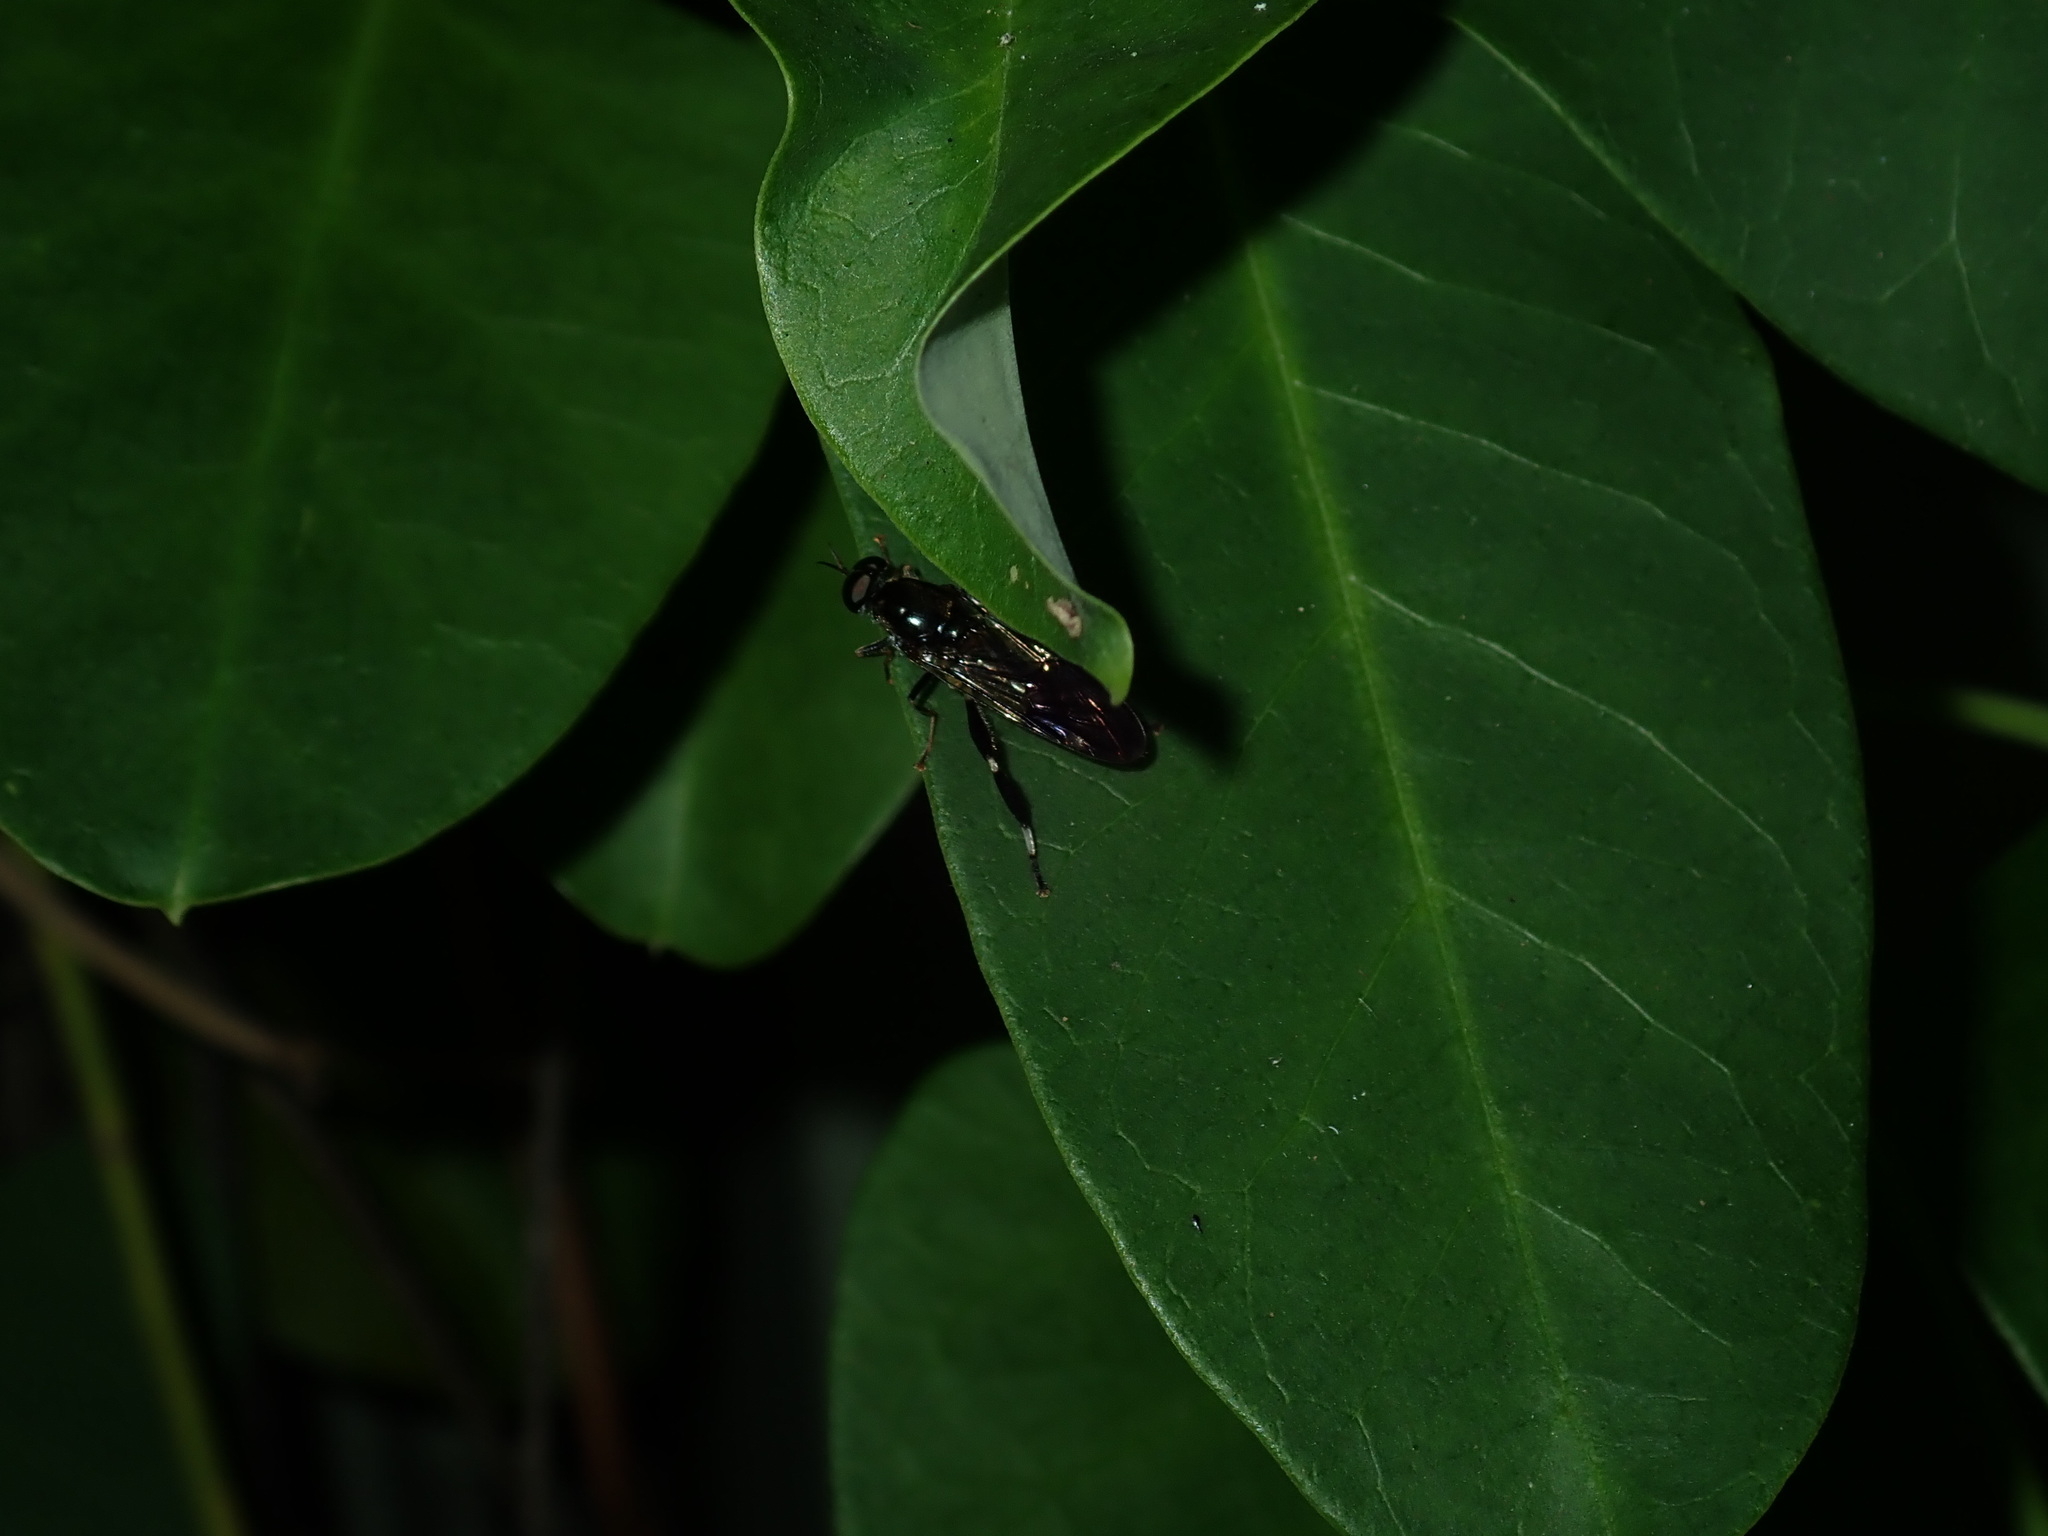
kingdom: Animalia
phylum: Arthropoda
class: Insecta
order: Diptera
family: Stratiomyidae
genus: Exaireta
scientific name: Exaireta spinigera
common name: Blue soldier fly
